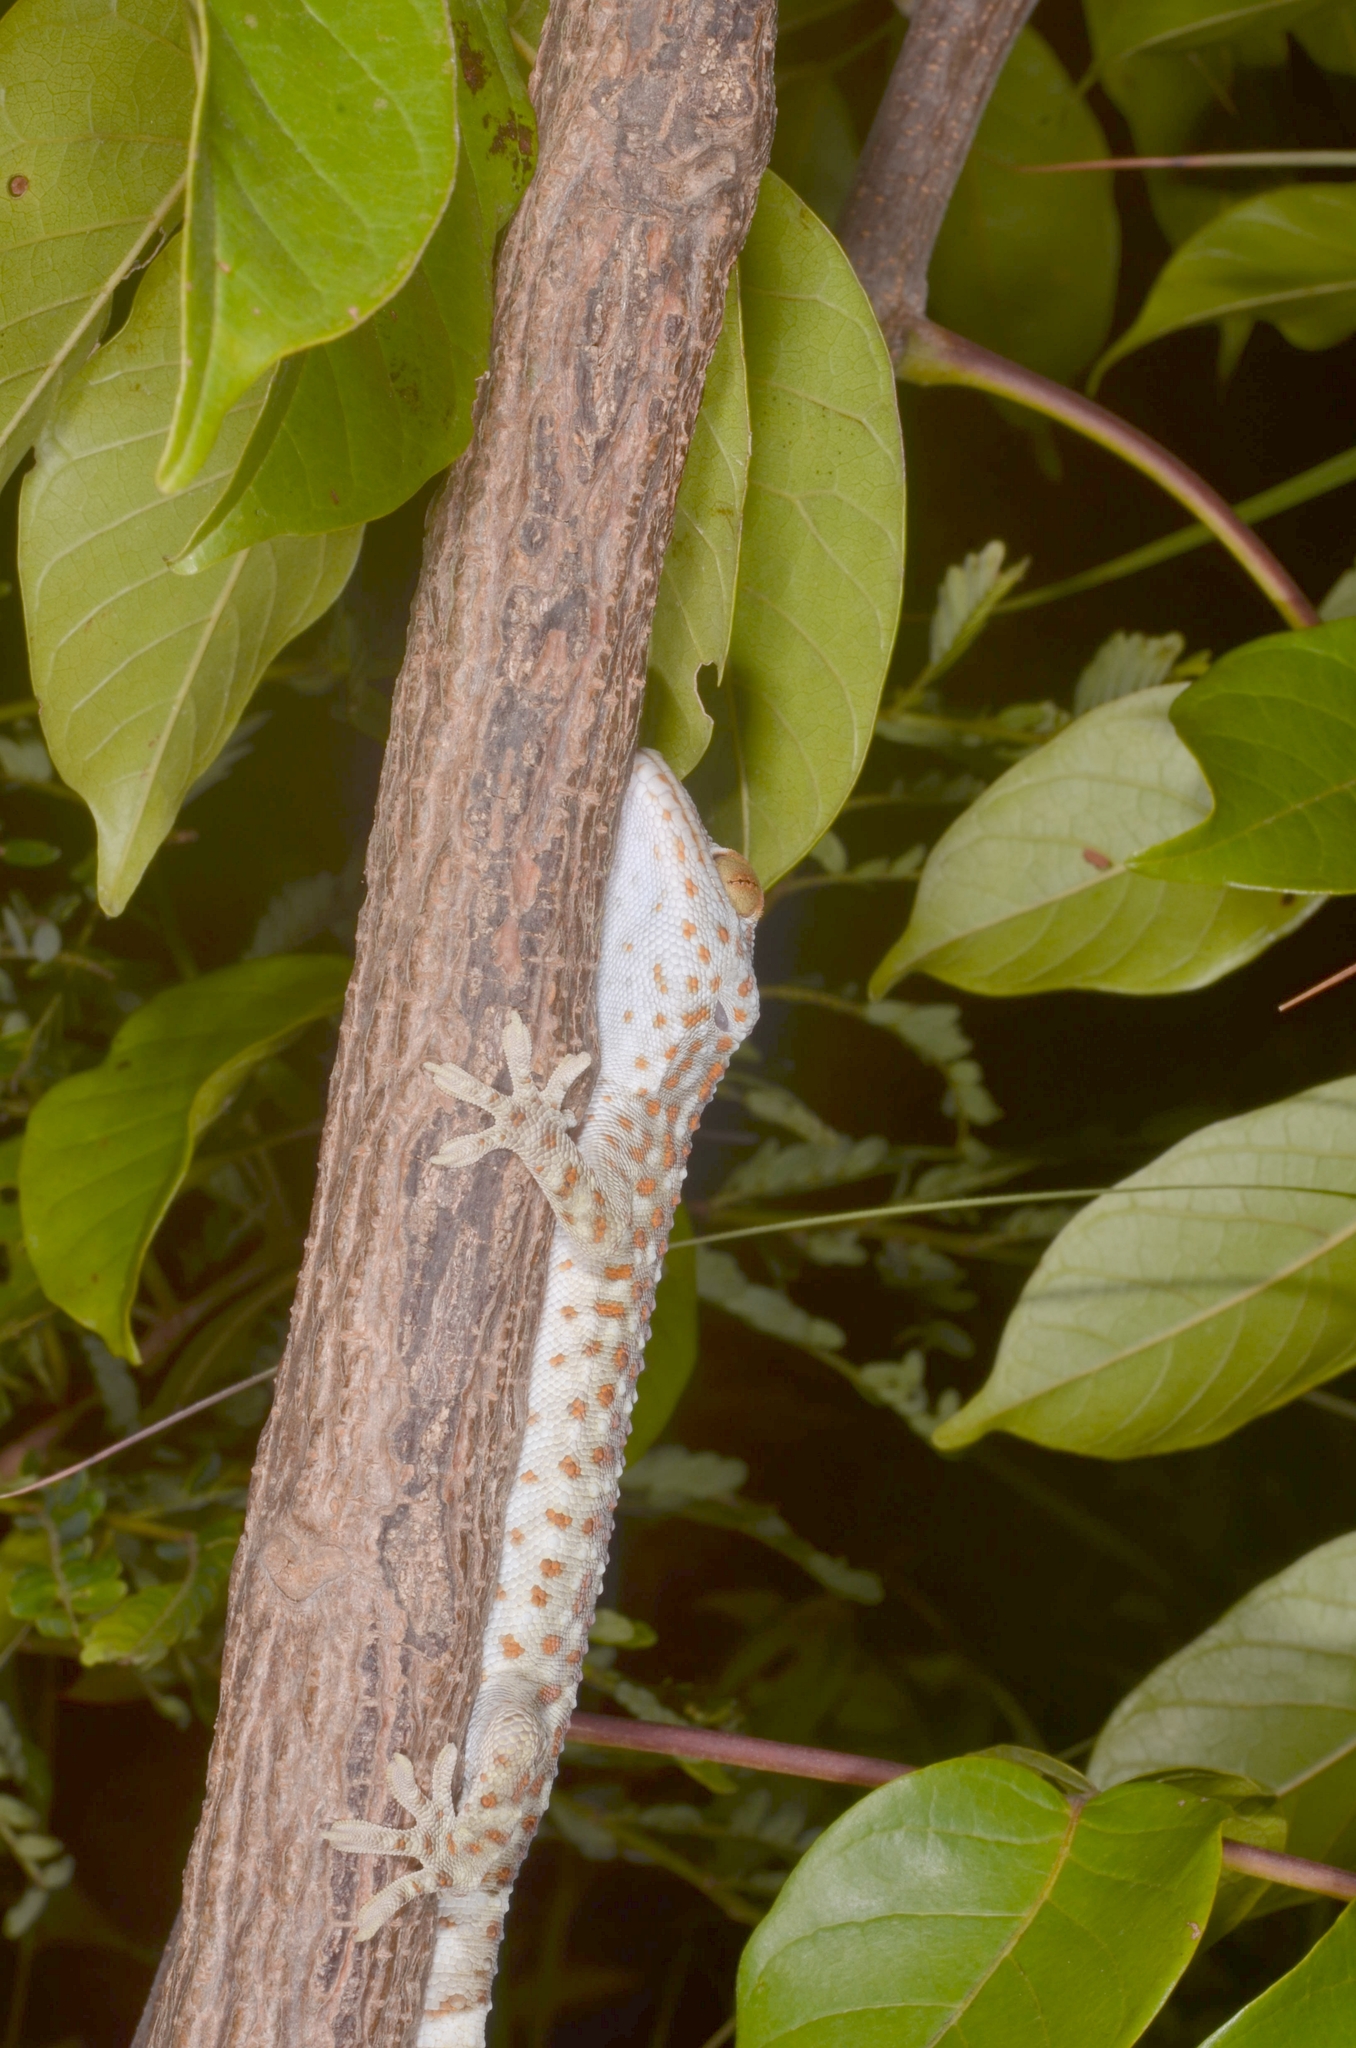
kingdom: Animalia
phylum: Chordata
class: Squamata
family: Gekkonidae
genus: Gekko
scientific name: Gekko gecko
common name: Tokay gecko
